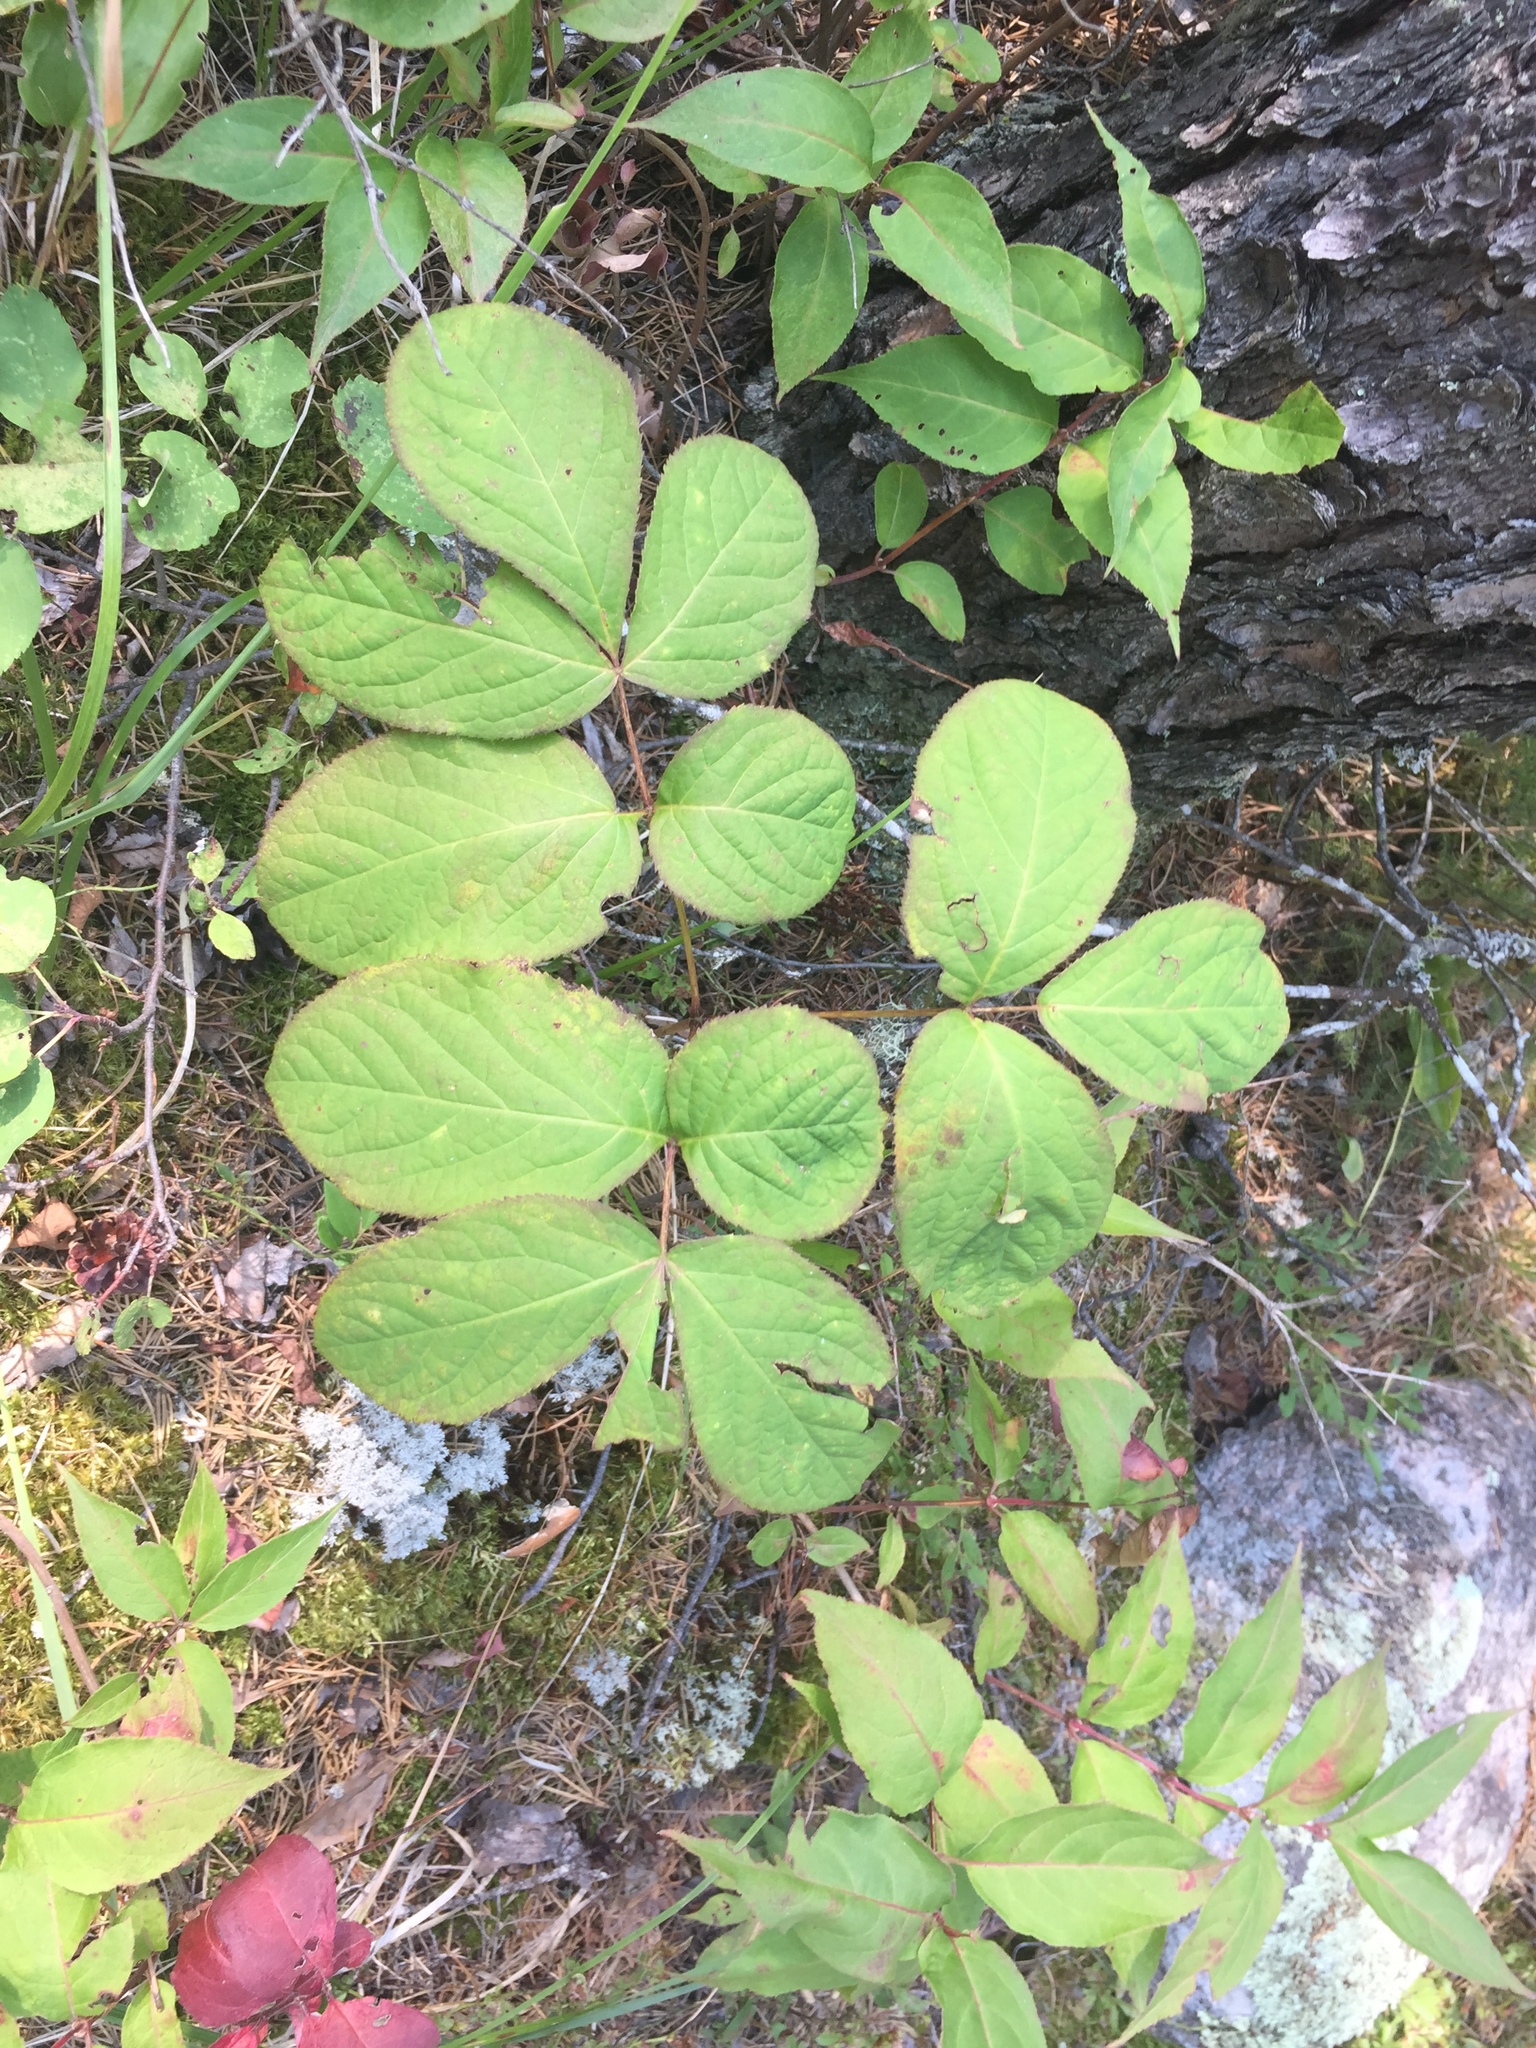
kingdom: Plantae
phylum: Tracheophyta
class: Magnoliopsida
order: Apiales
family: Araliaceae
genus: Aralia
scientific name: Aralia nudicaulis
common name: Wild sarsaparilla
